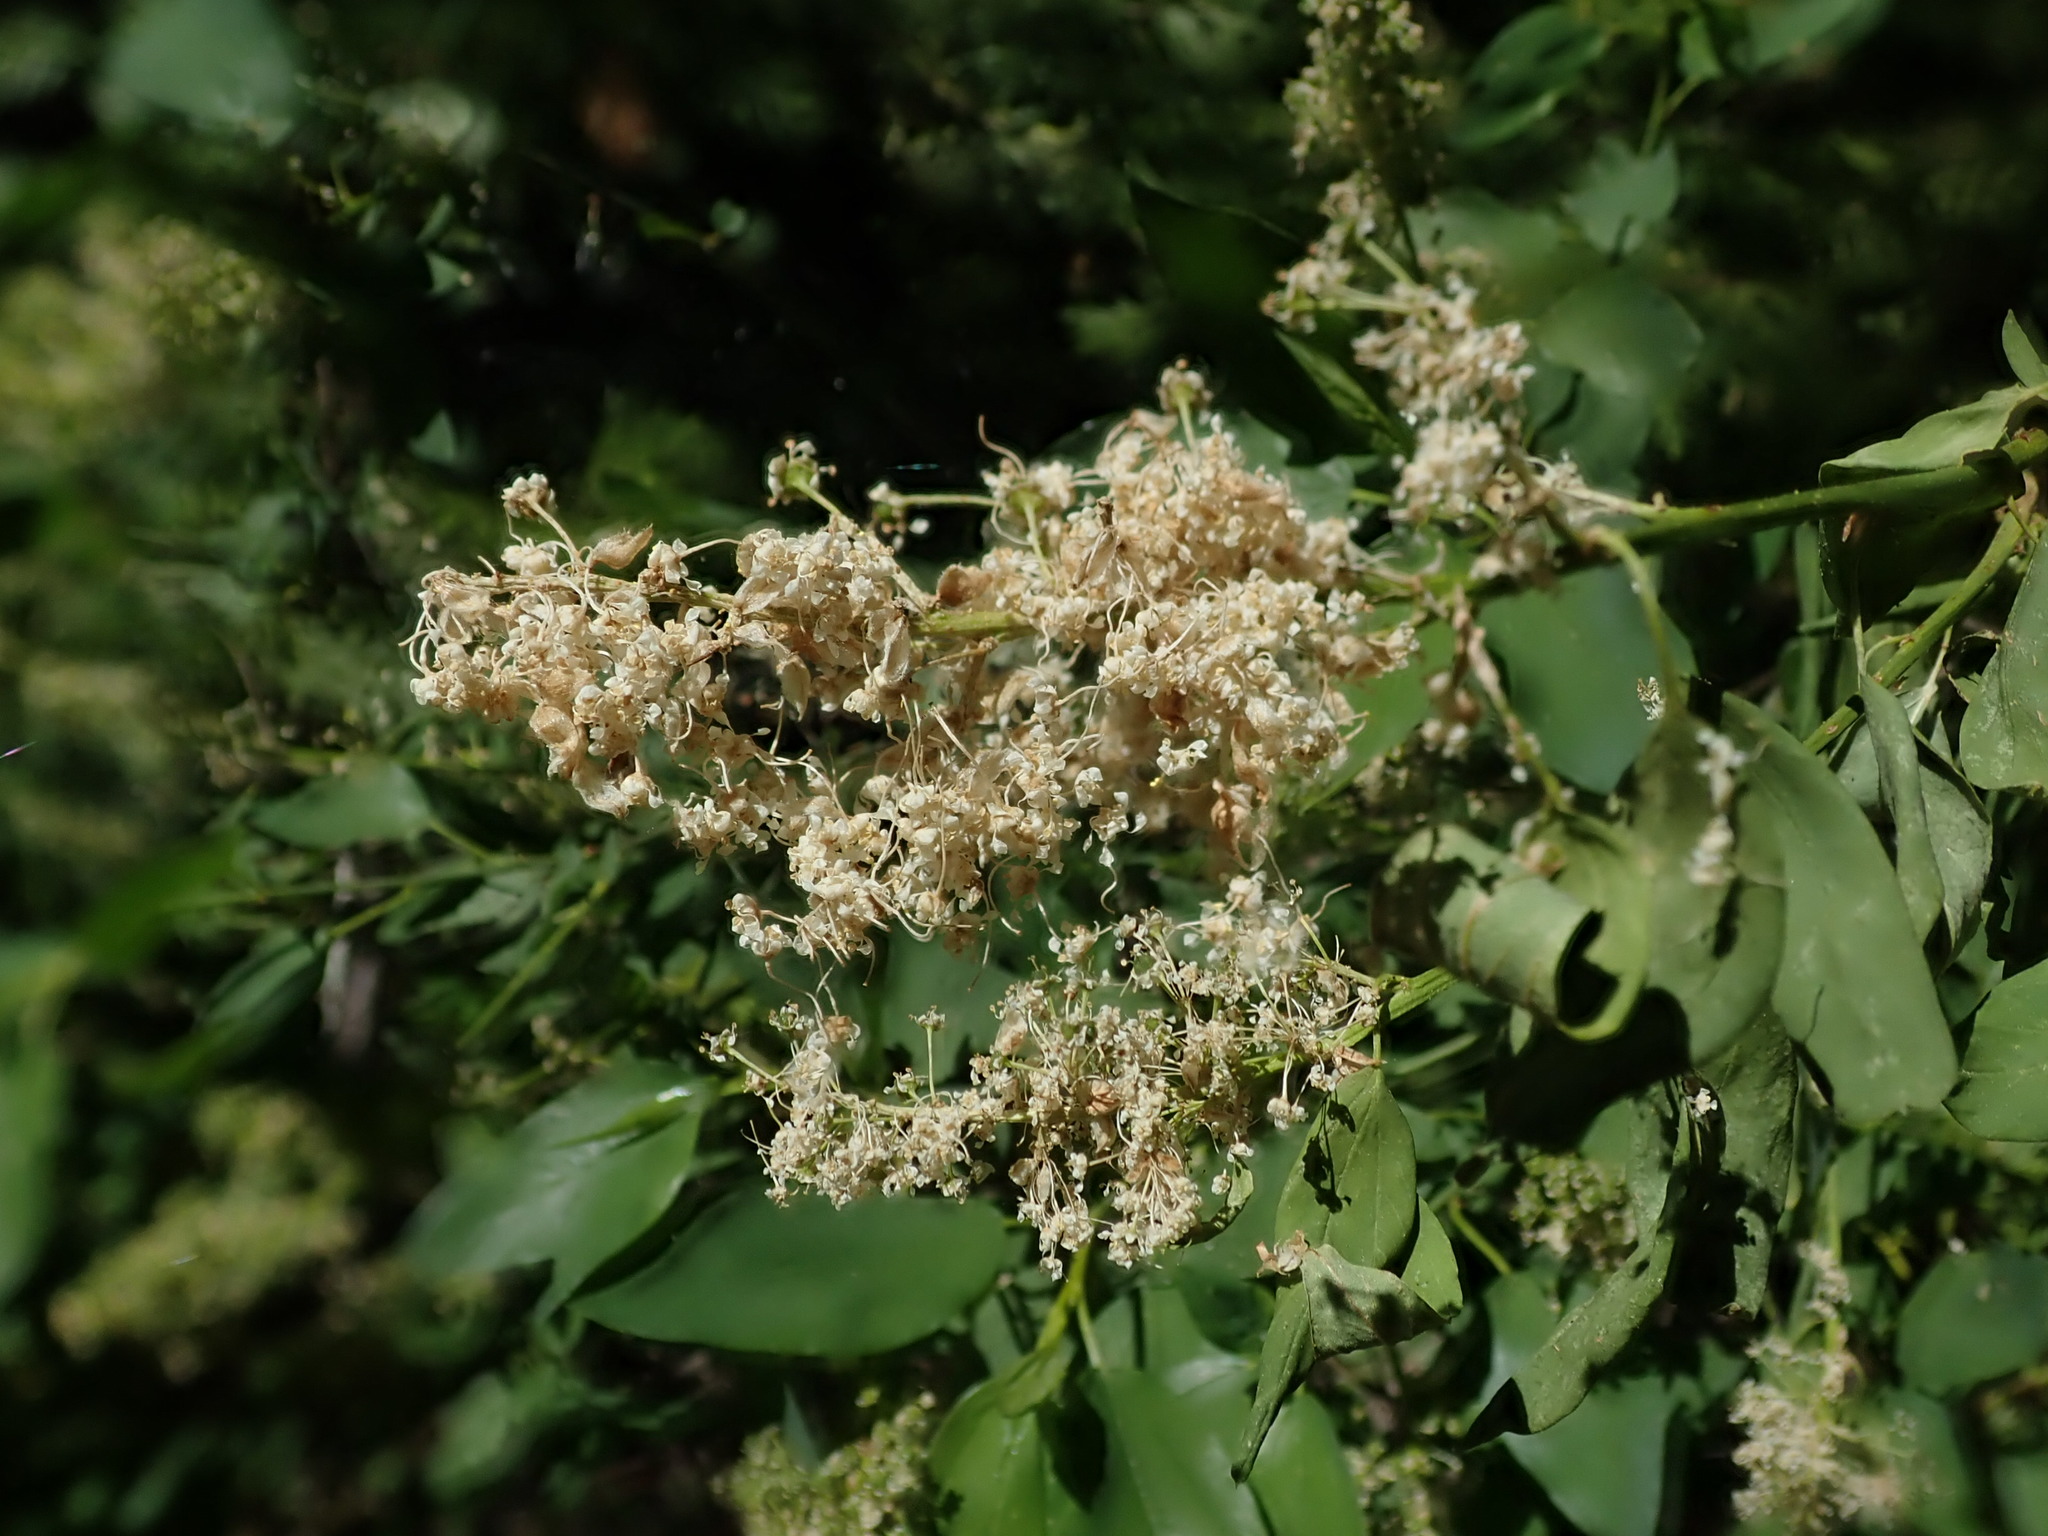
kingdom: Plantae
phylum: Tracheophyta
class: Magnoliopsida
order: Rosales
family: Rhamnaceae
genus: Ceanothus
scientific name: Ceanothus integerrimus
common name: Deerbrush ceanothus
